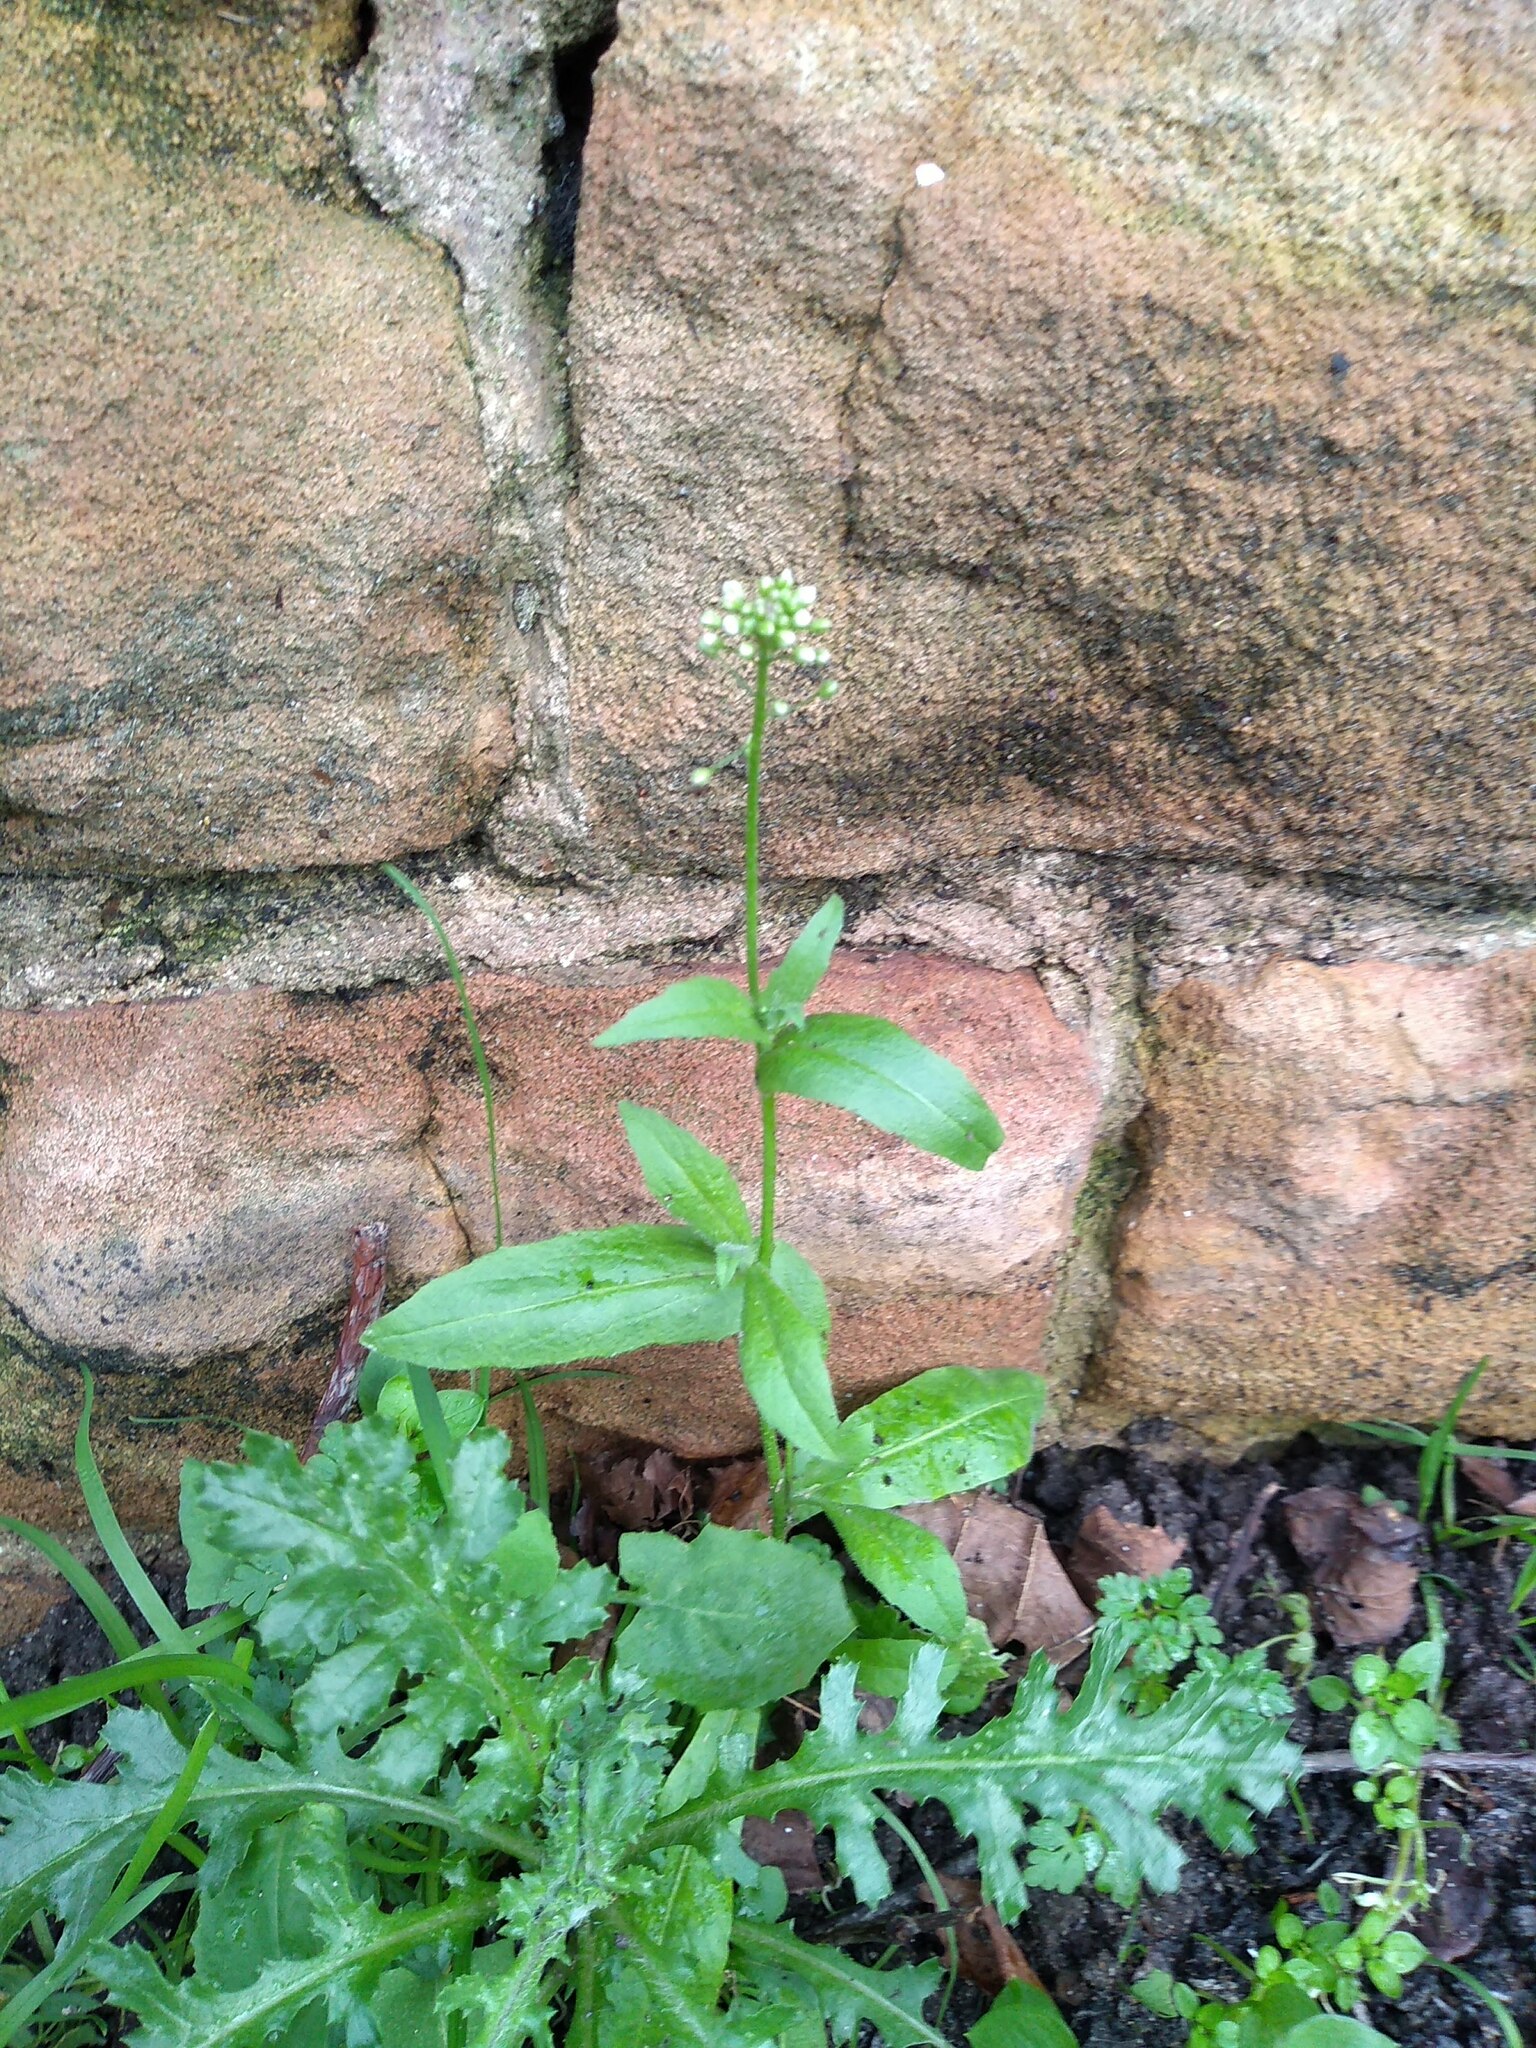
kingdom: Plantae
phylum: Tracheophyta
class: Magnoliopsida
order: Brassicales
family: Brassicaceae
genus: Capsella
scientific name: Capsella bursa-pastoris
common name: Shepherd's purse
